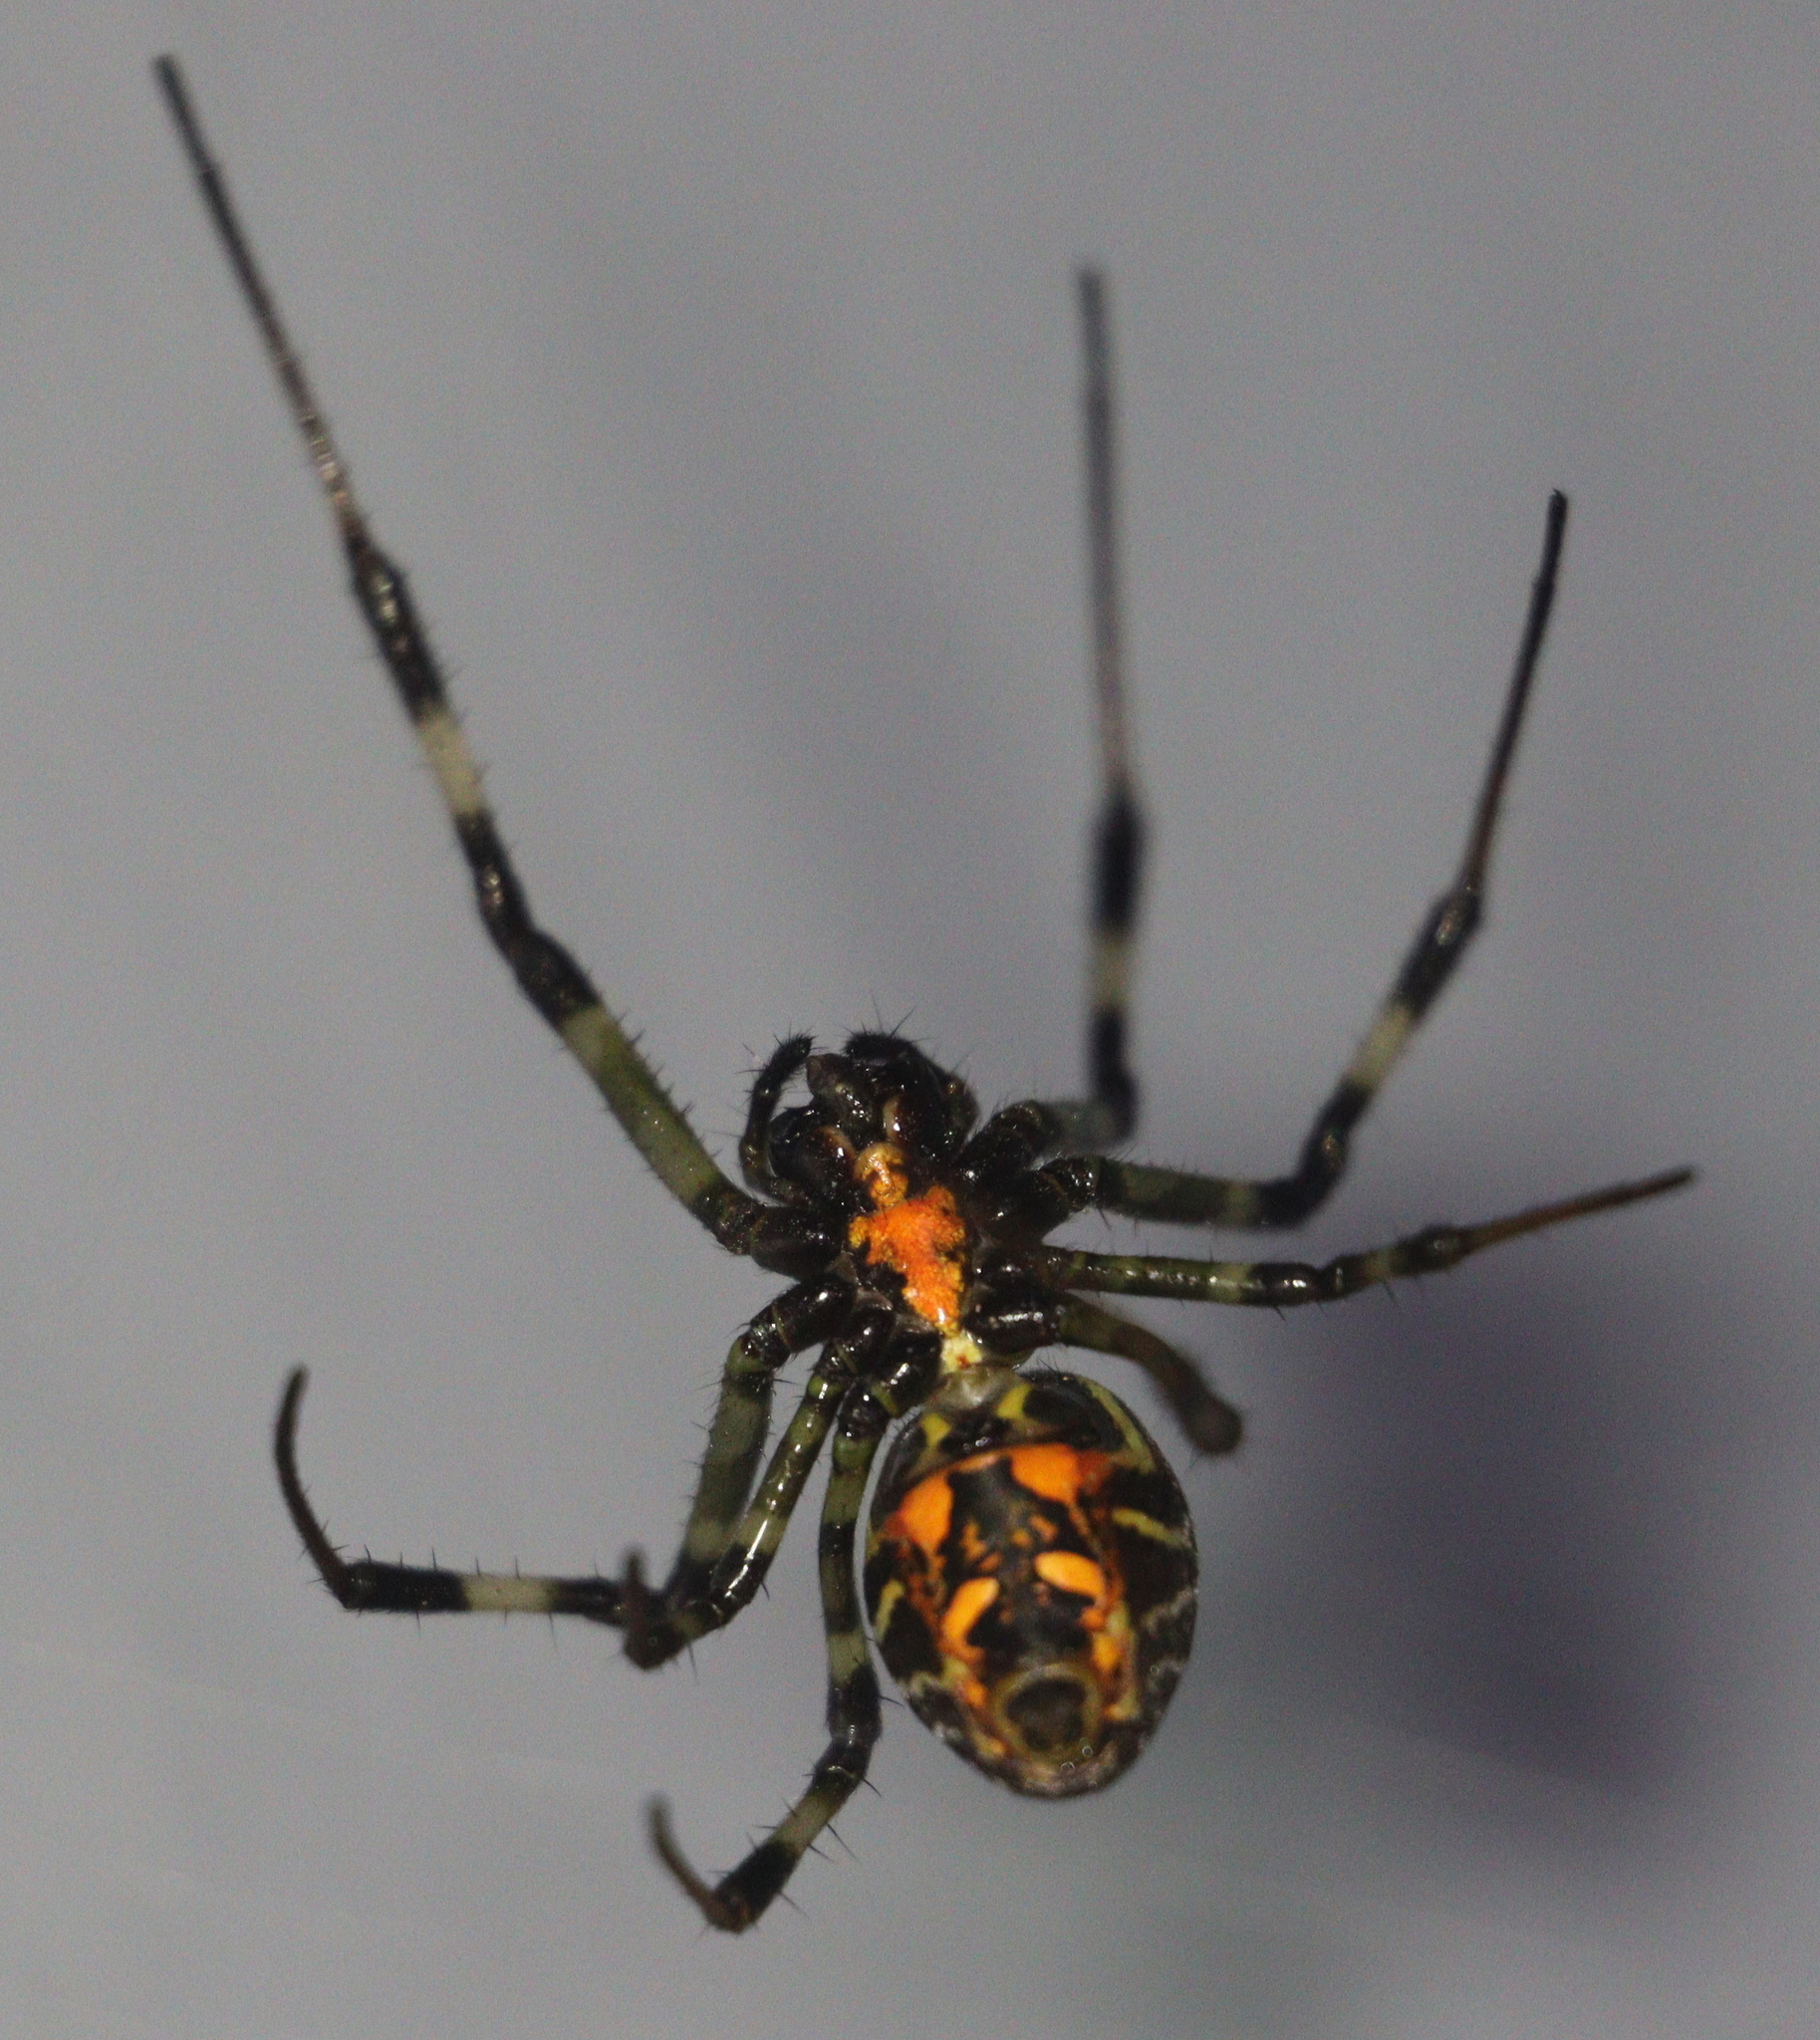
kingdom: Animalia
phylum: Arthropoda
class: Arachnida
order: Araneae
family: Araneidae
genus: Nephilengys
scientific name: Nephilengys malabarensis
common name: Asian hermit spider
